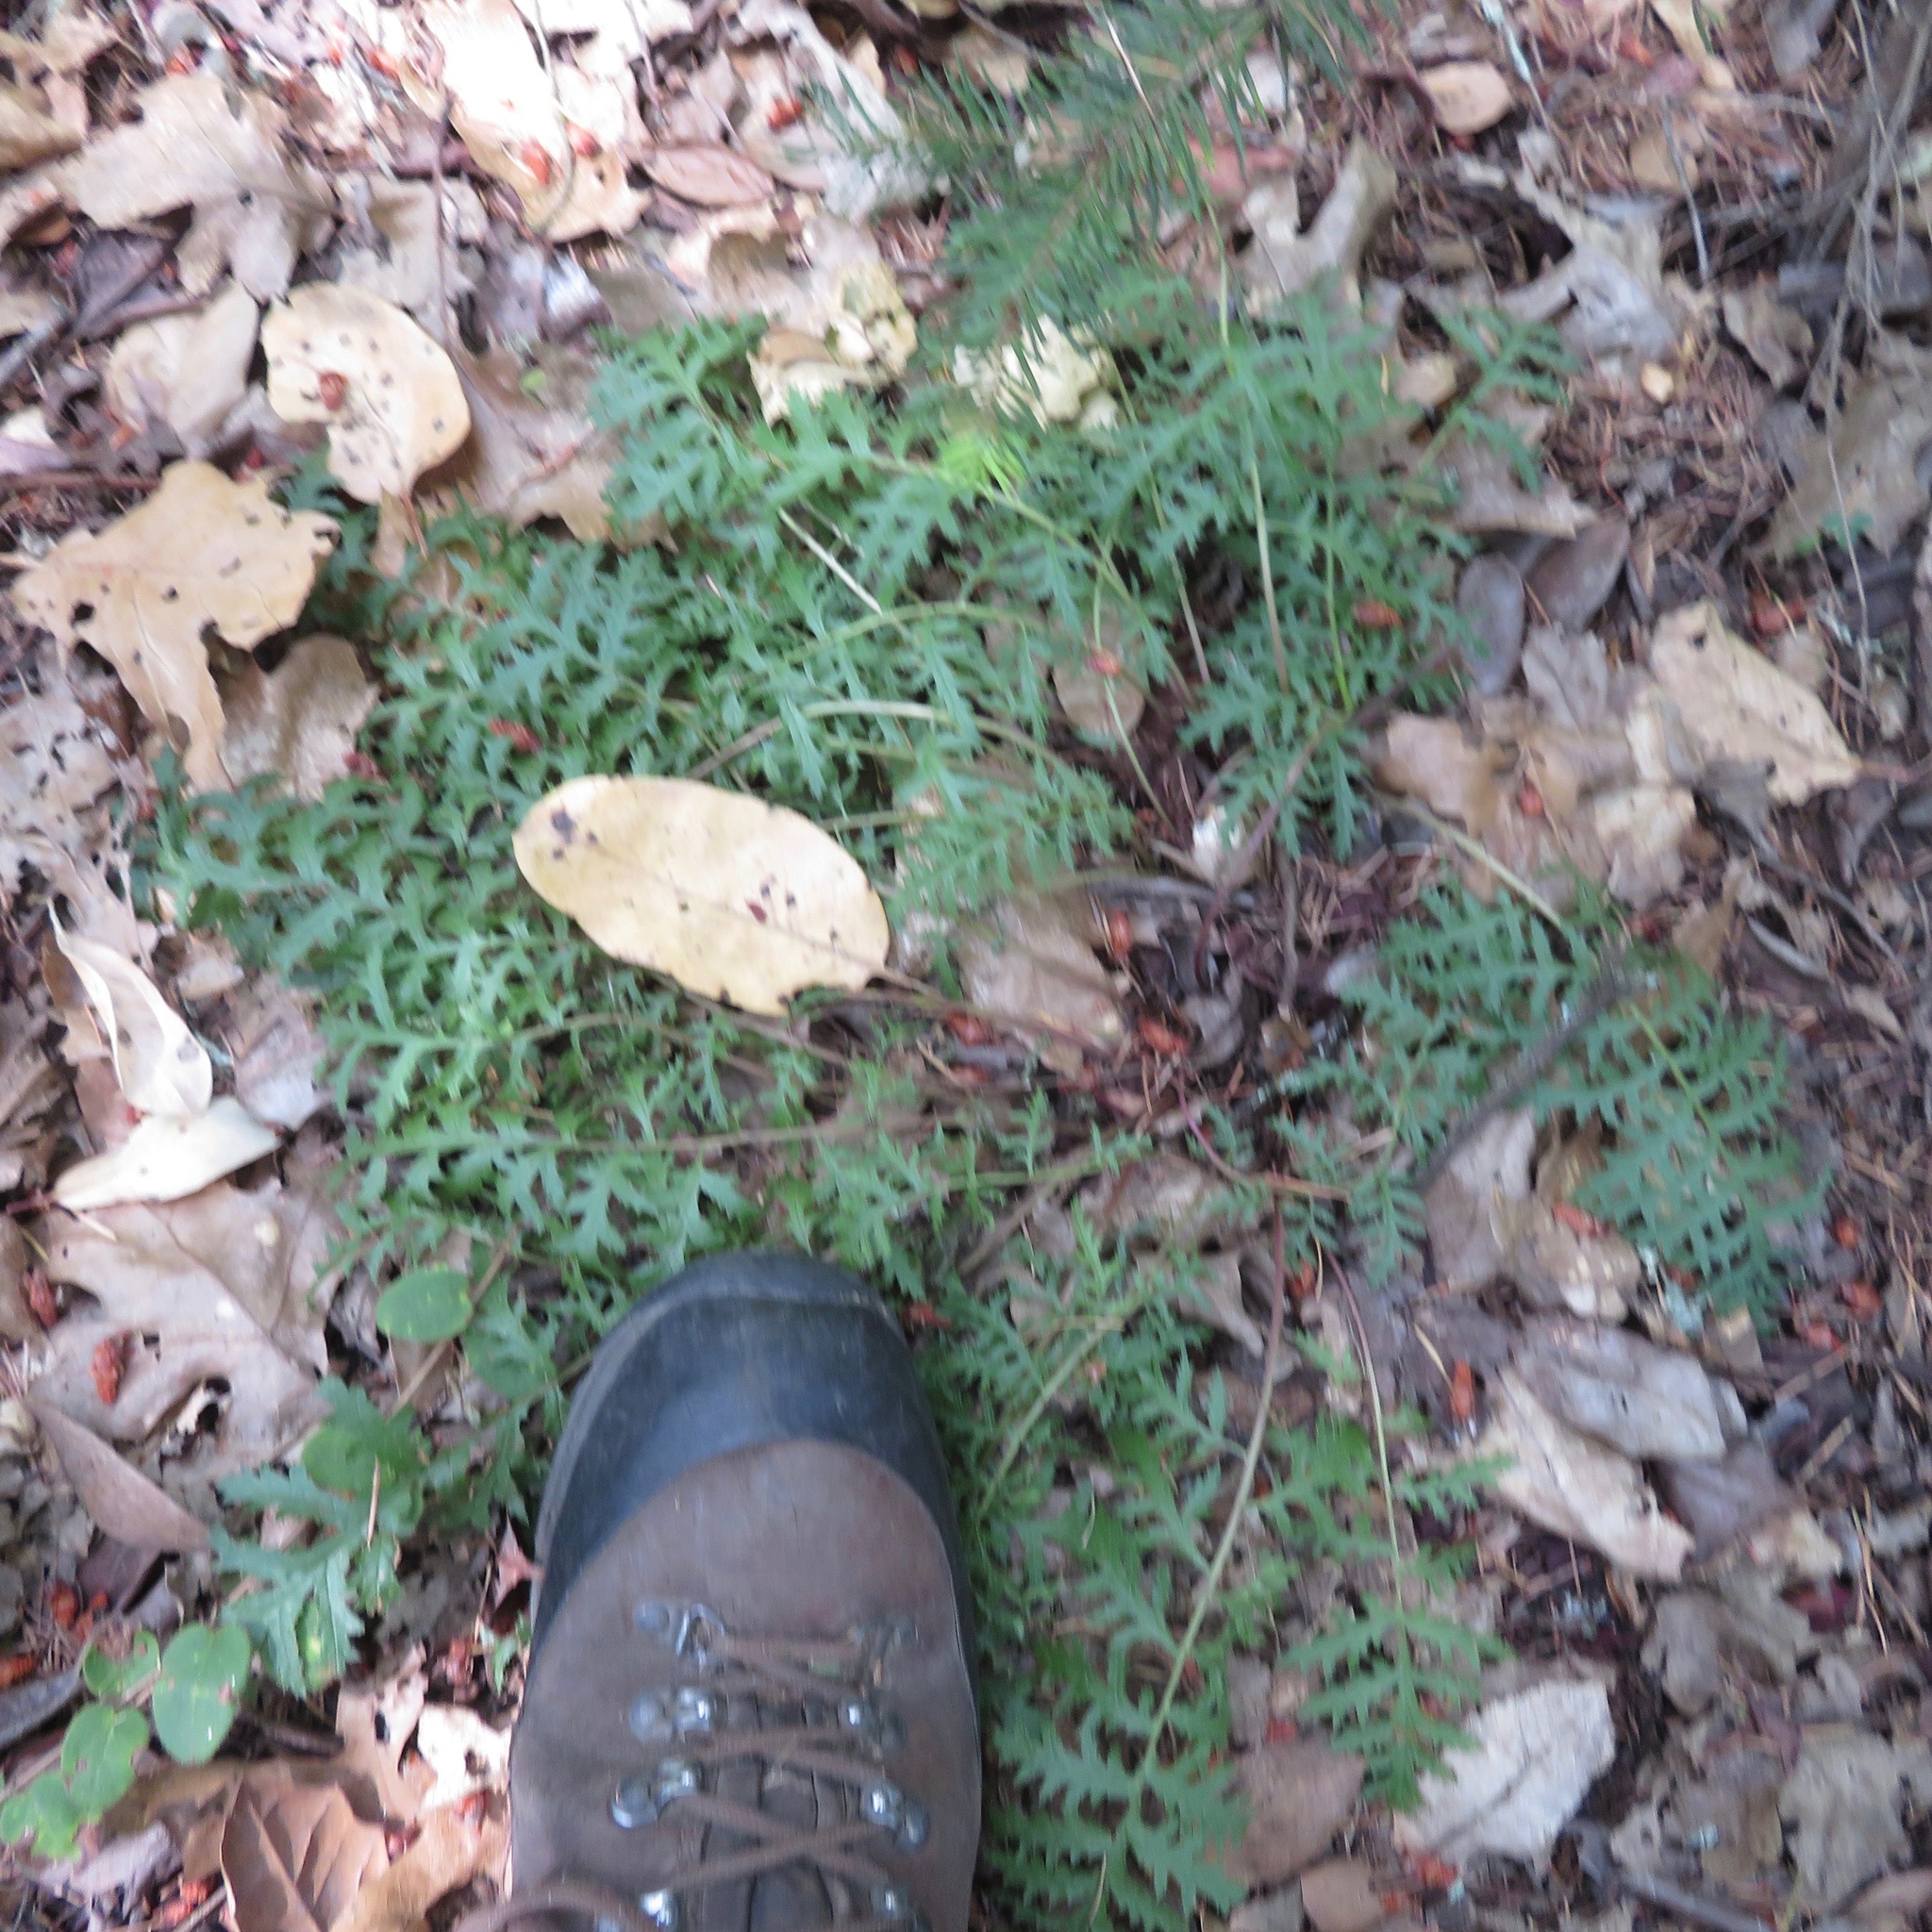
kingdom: Plantae
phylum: Tracheophyta
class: Magnoliopsida
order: Lamiales
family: Orobanchaceae
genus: Pedicularis
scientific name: Pedicularis densiflora
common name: Indian warrior
